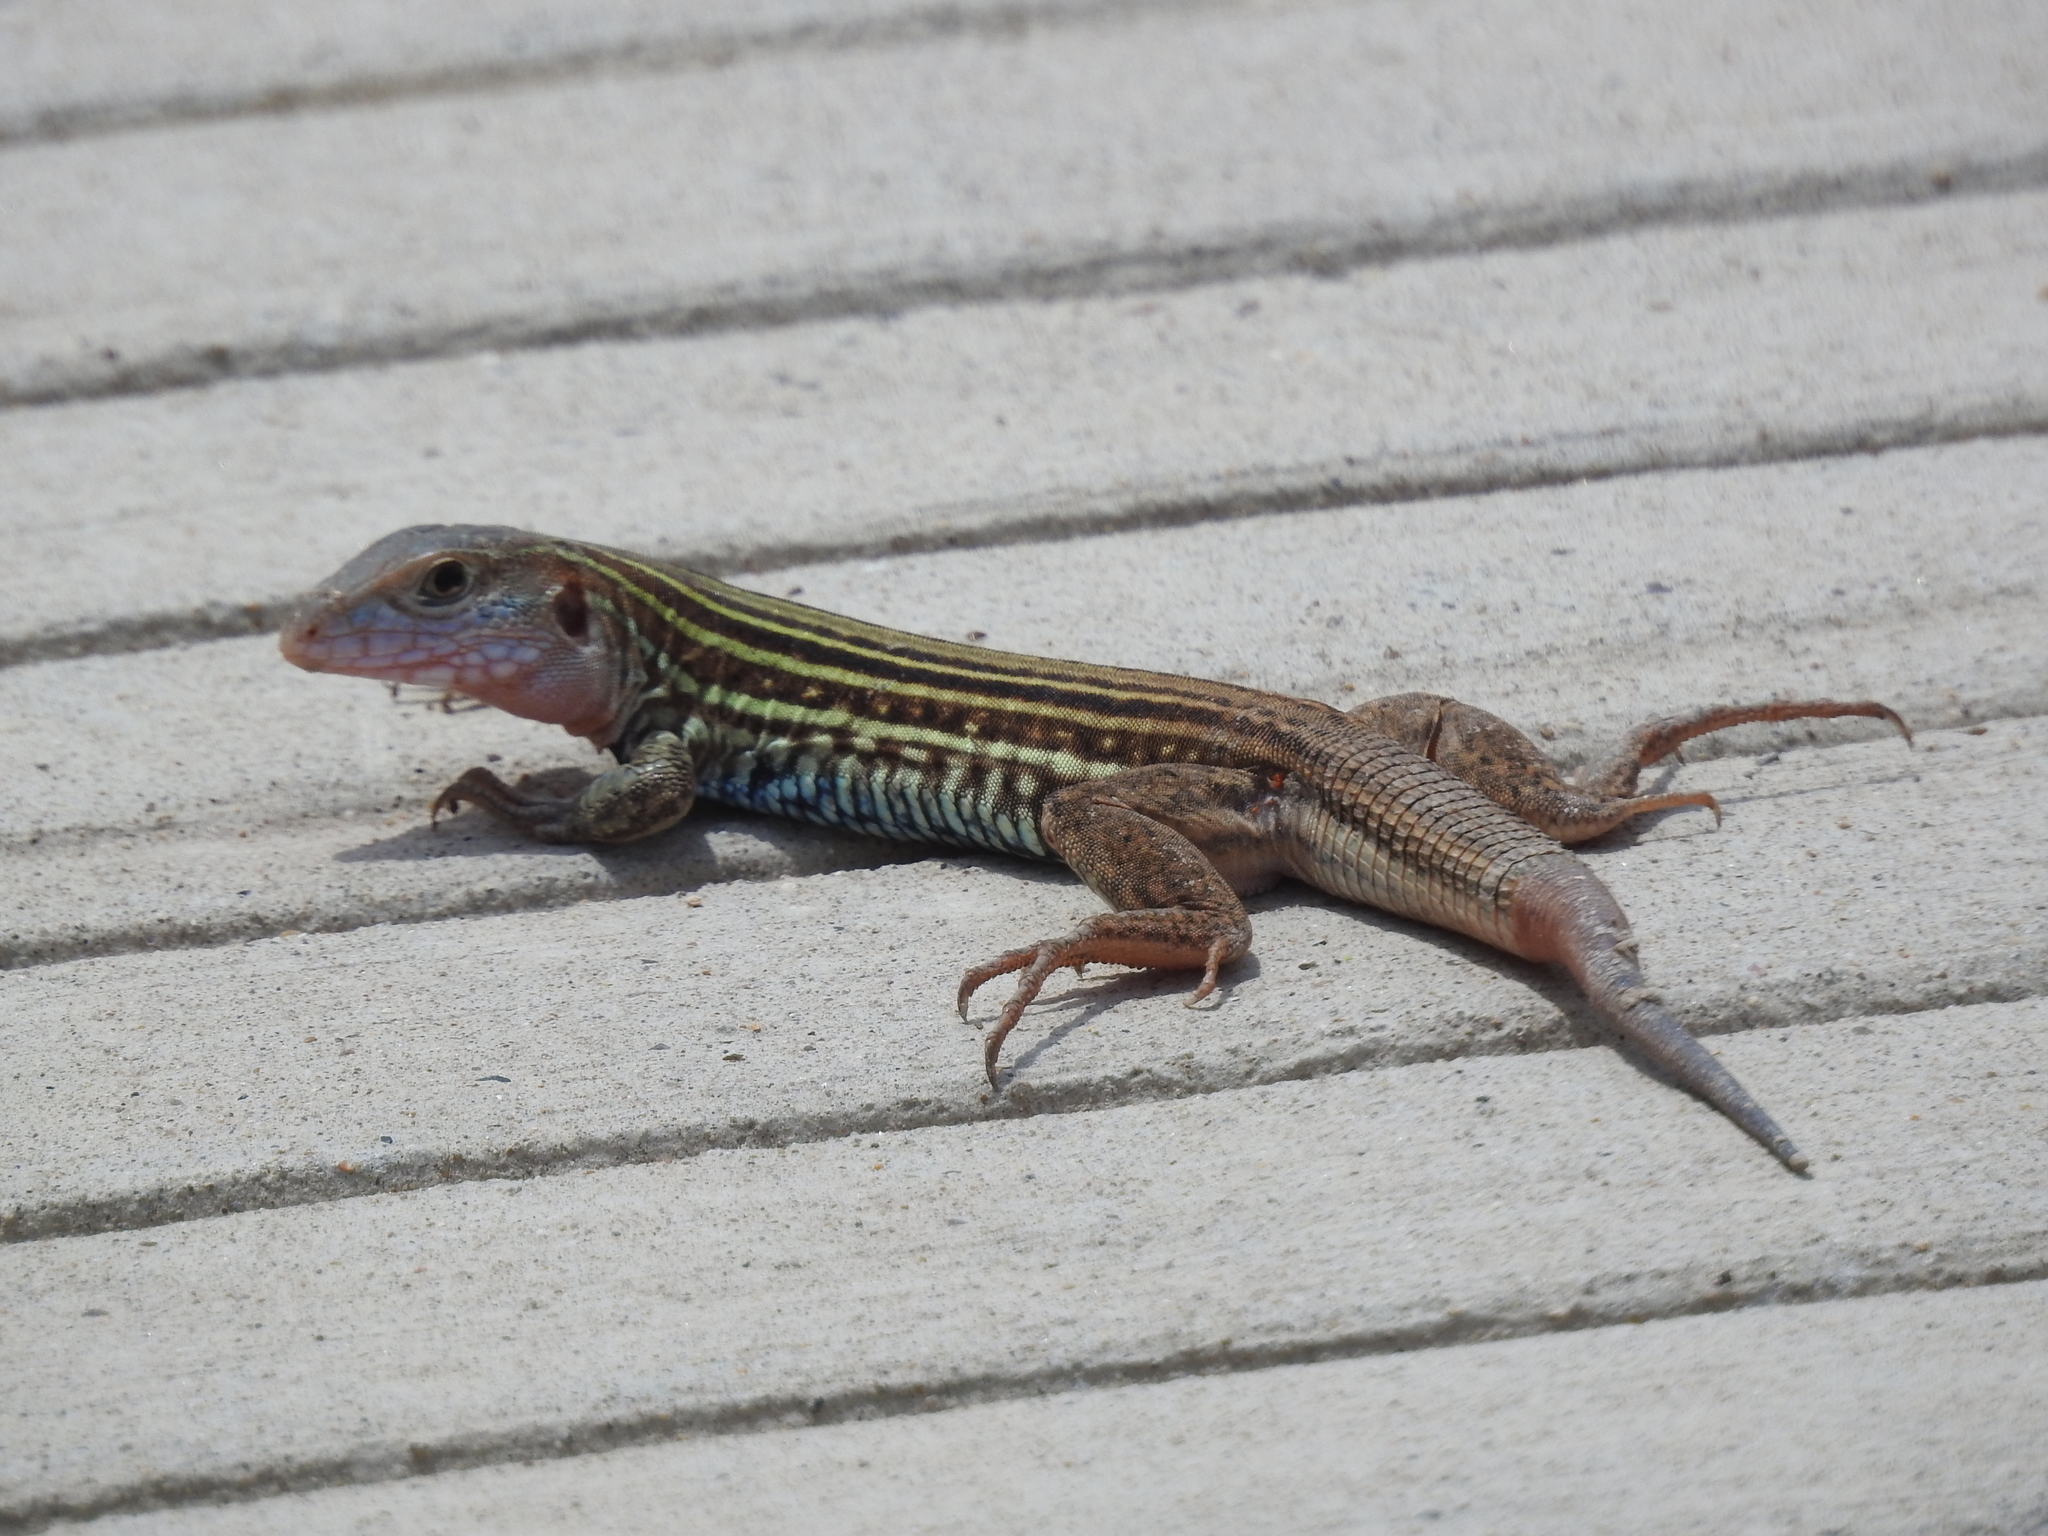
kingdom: Animalia
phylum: Chordata
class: Squamata
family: Teiidae
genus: Aspidoscelis
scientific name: Aspidoscelis gularis
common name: Eastern spotted whiptail
